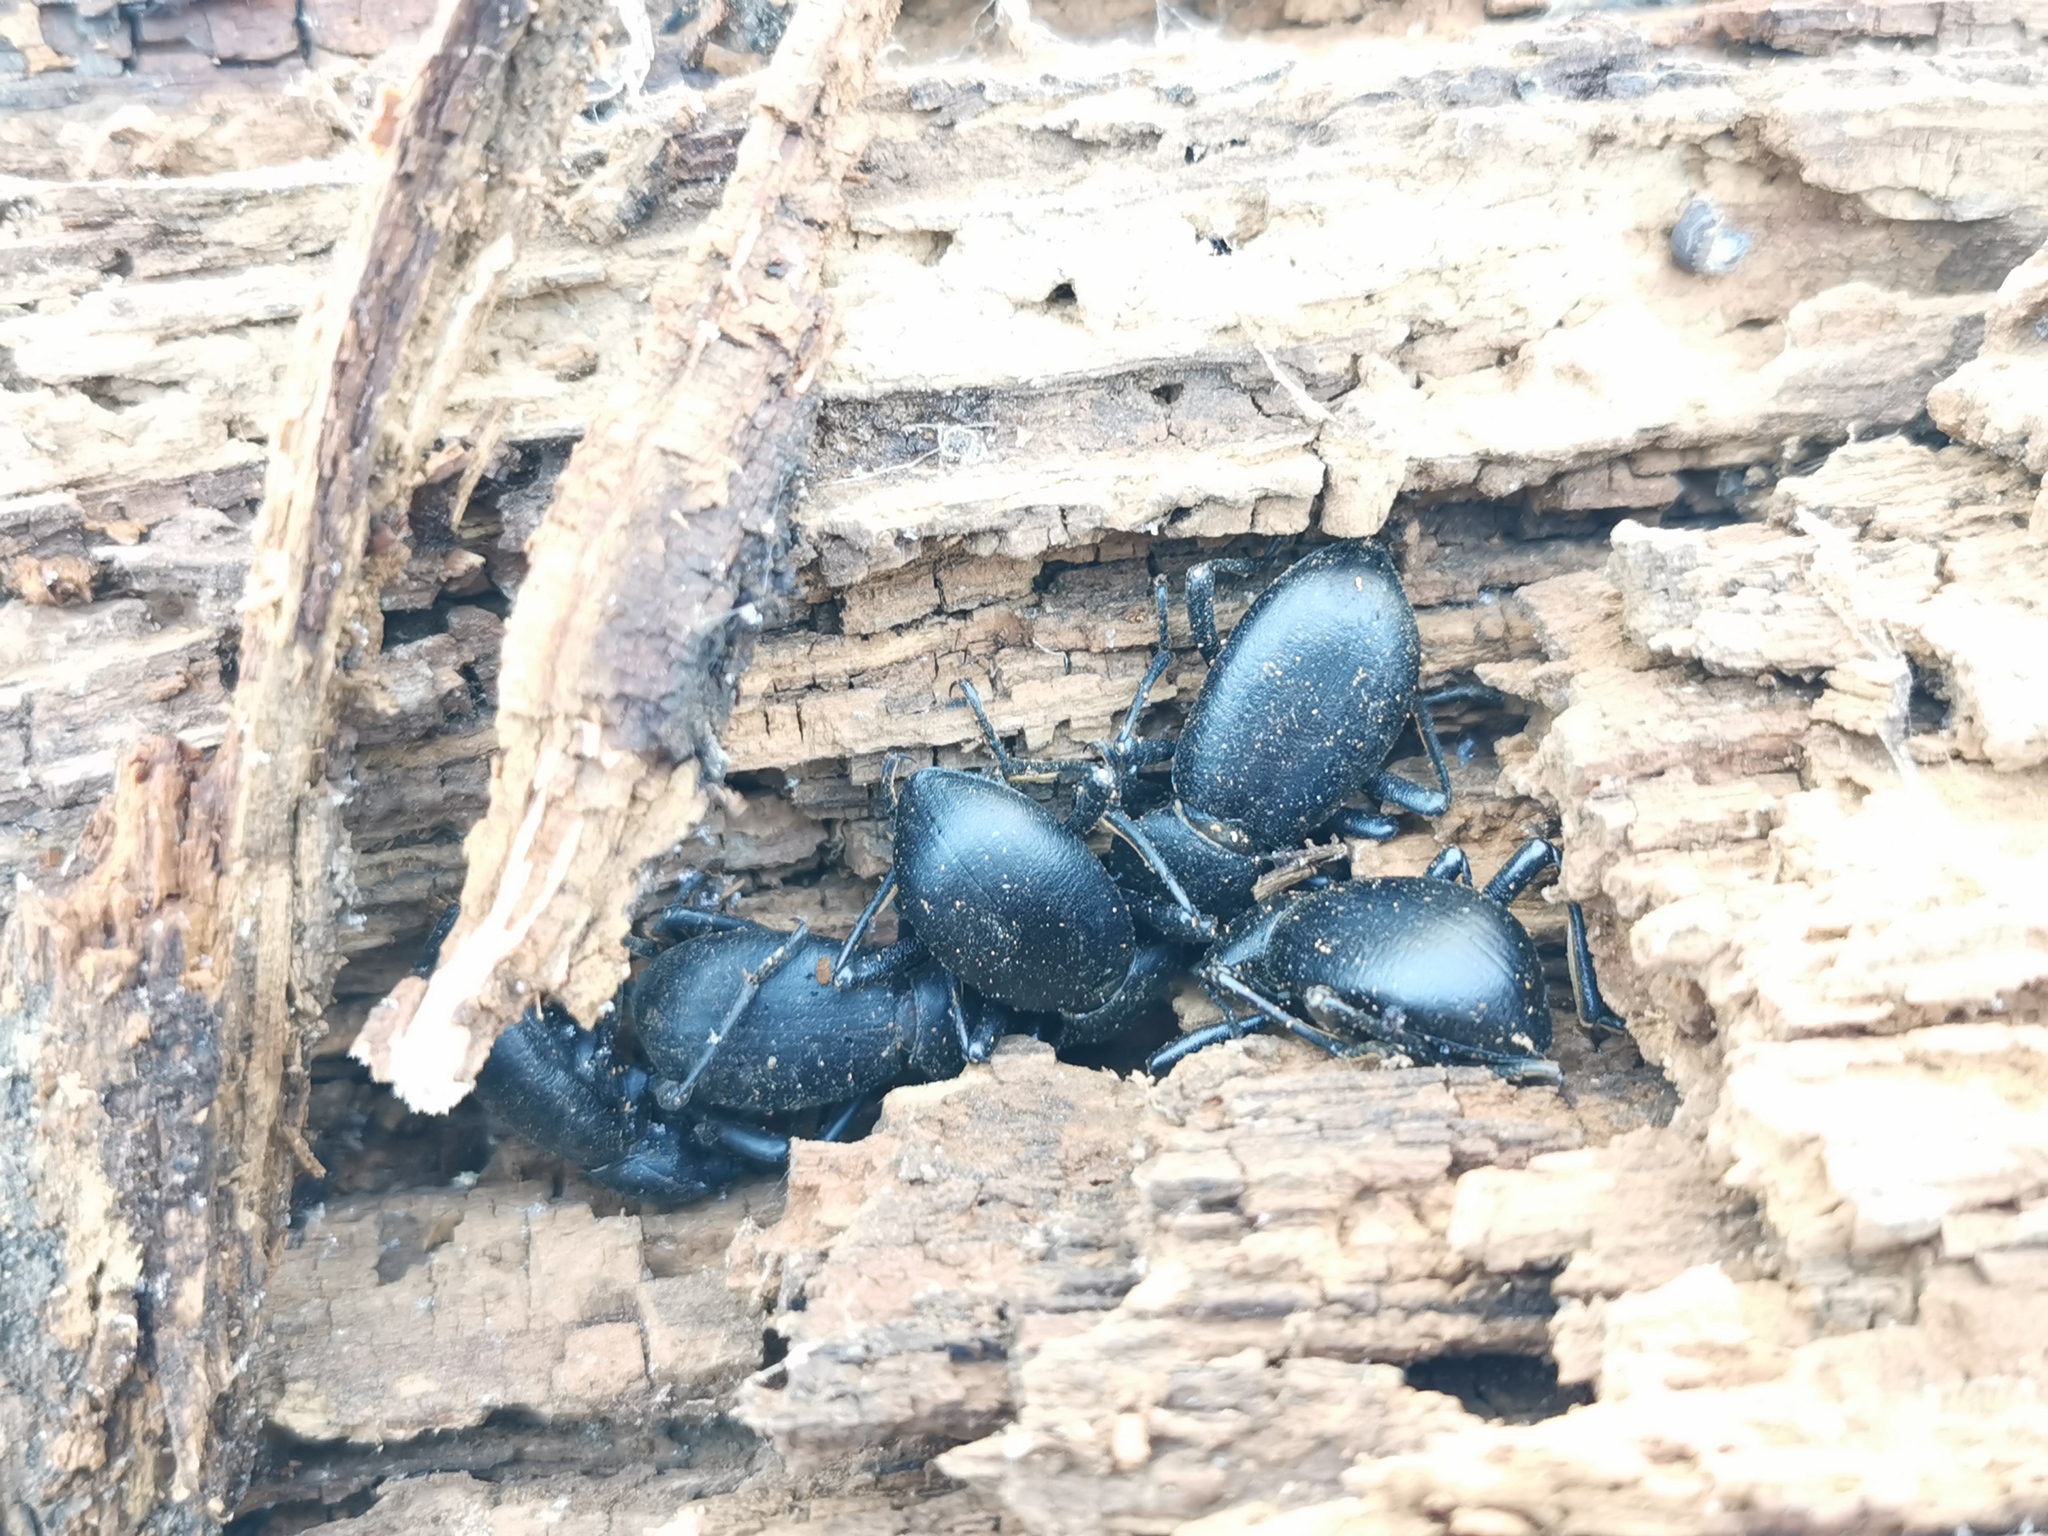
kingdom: Animalia
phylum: Arthropoda
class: Insecta
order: Coleoptera
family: Tenebrionidae
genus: Coelocnemis
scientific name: Coelocnemis dilaticollis
